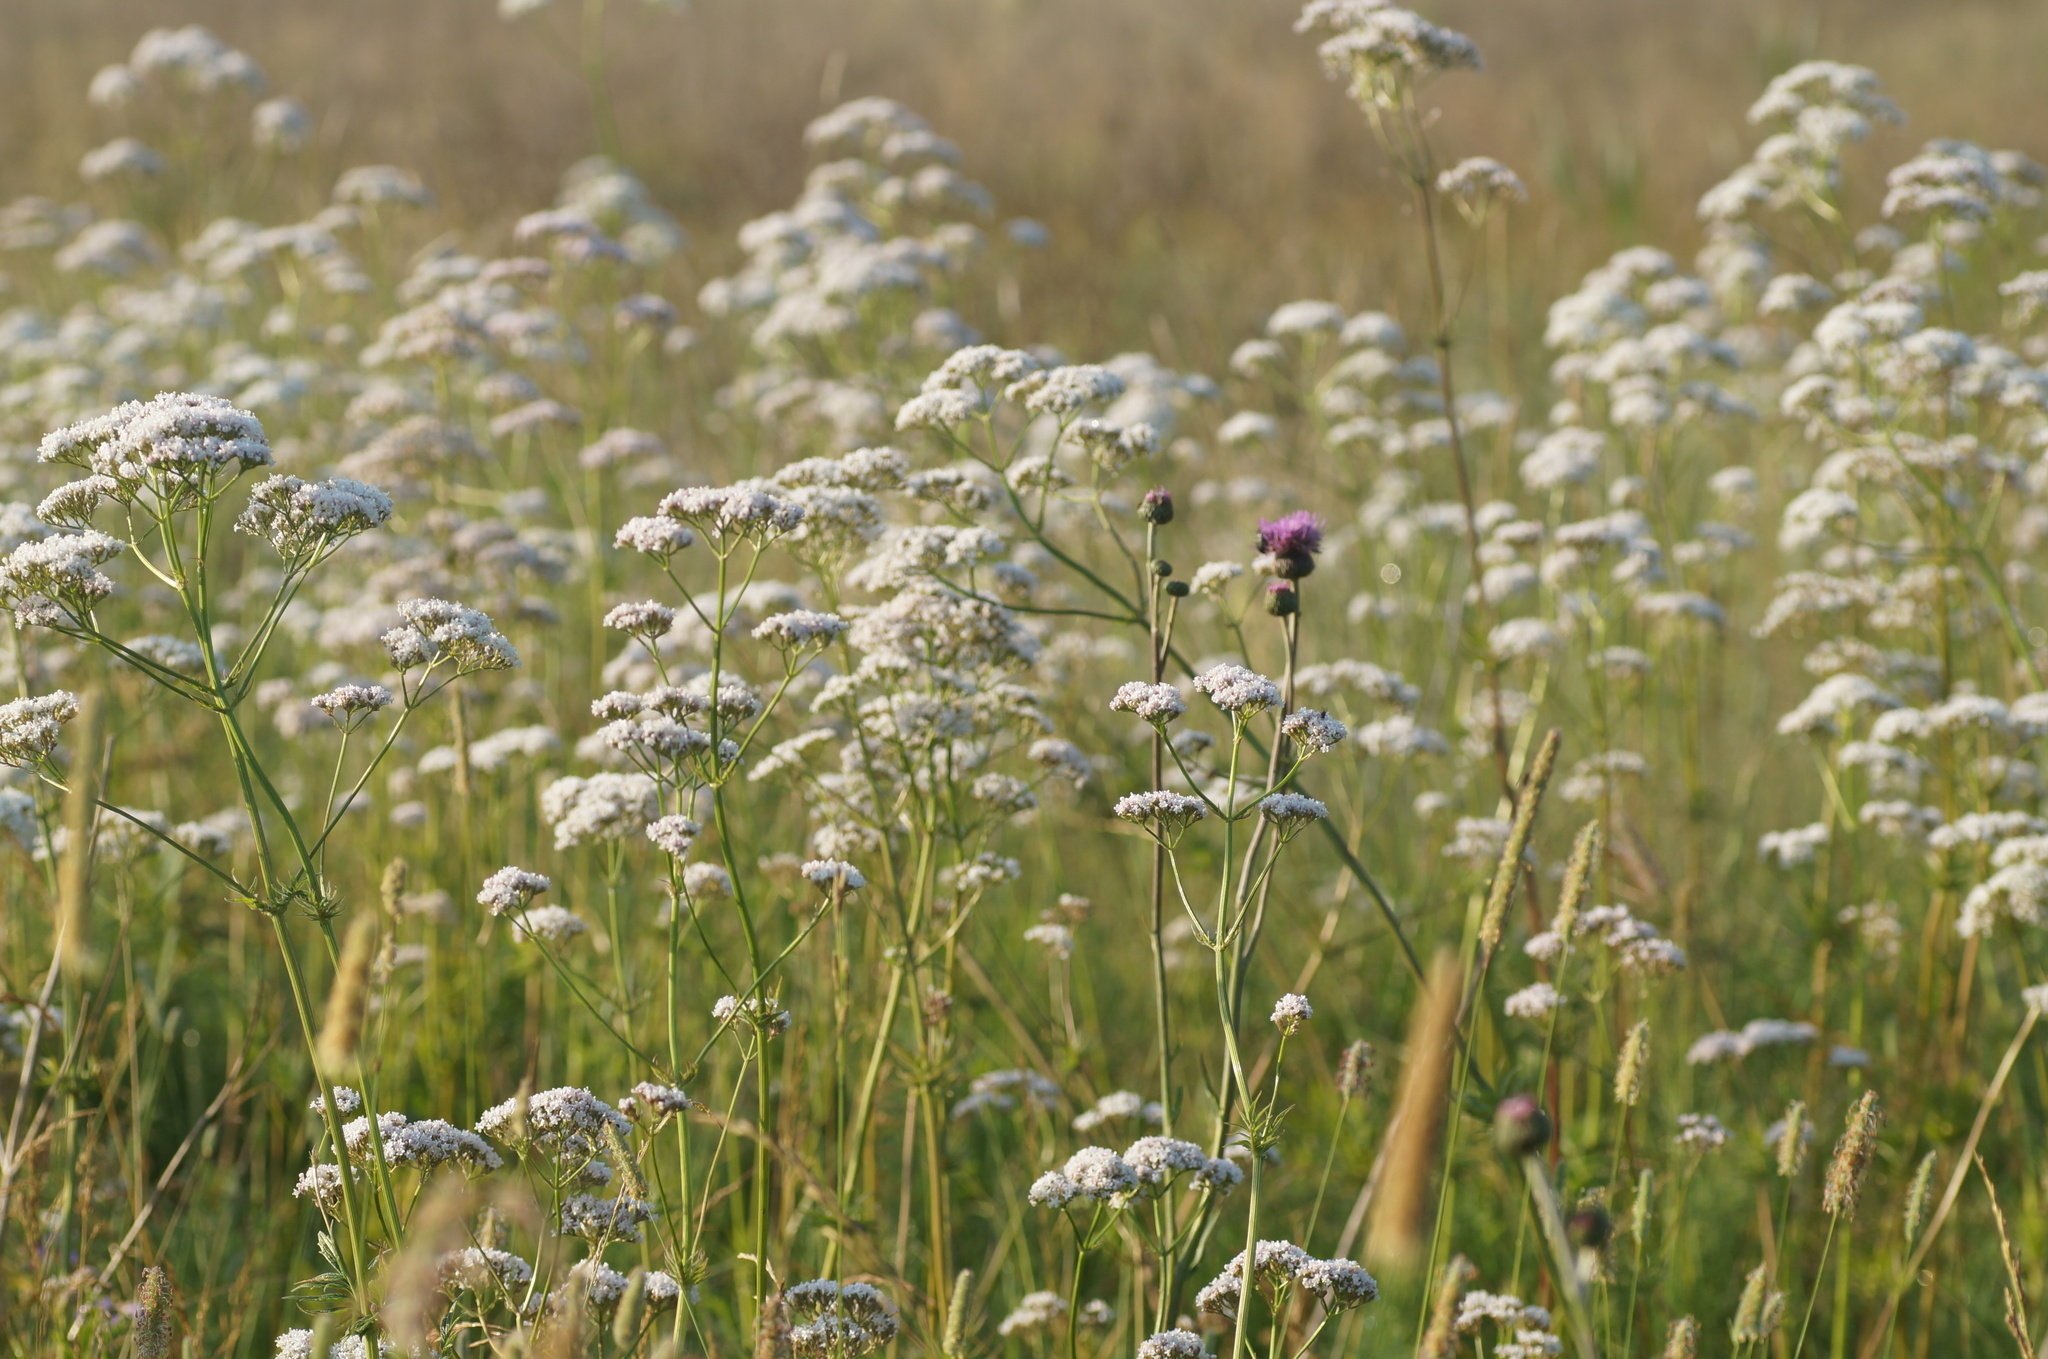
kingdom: Plantae
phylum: Tracheophyta
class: Magnoliopsida
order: Dipsacales
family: Caprifoliaceae
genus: Valeriana
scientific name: Valeriana officinalis
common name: Common valerian
